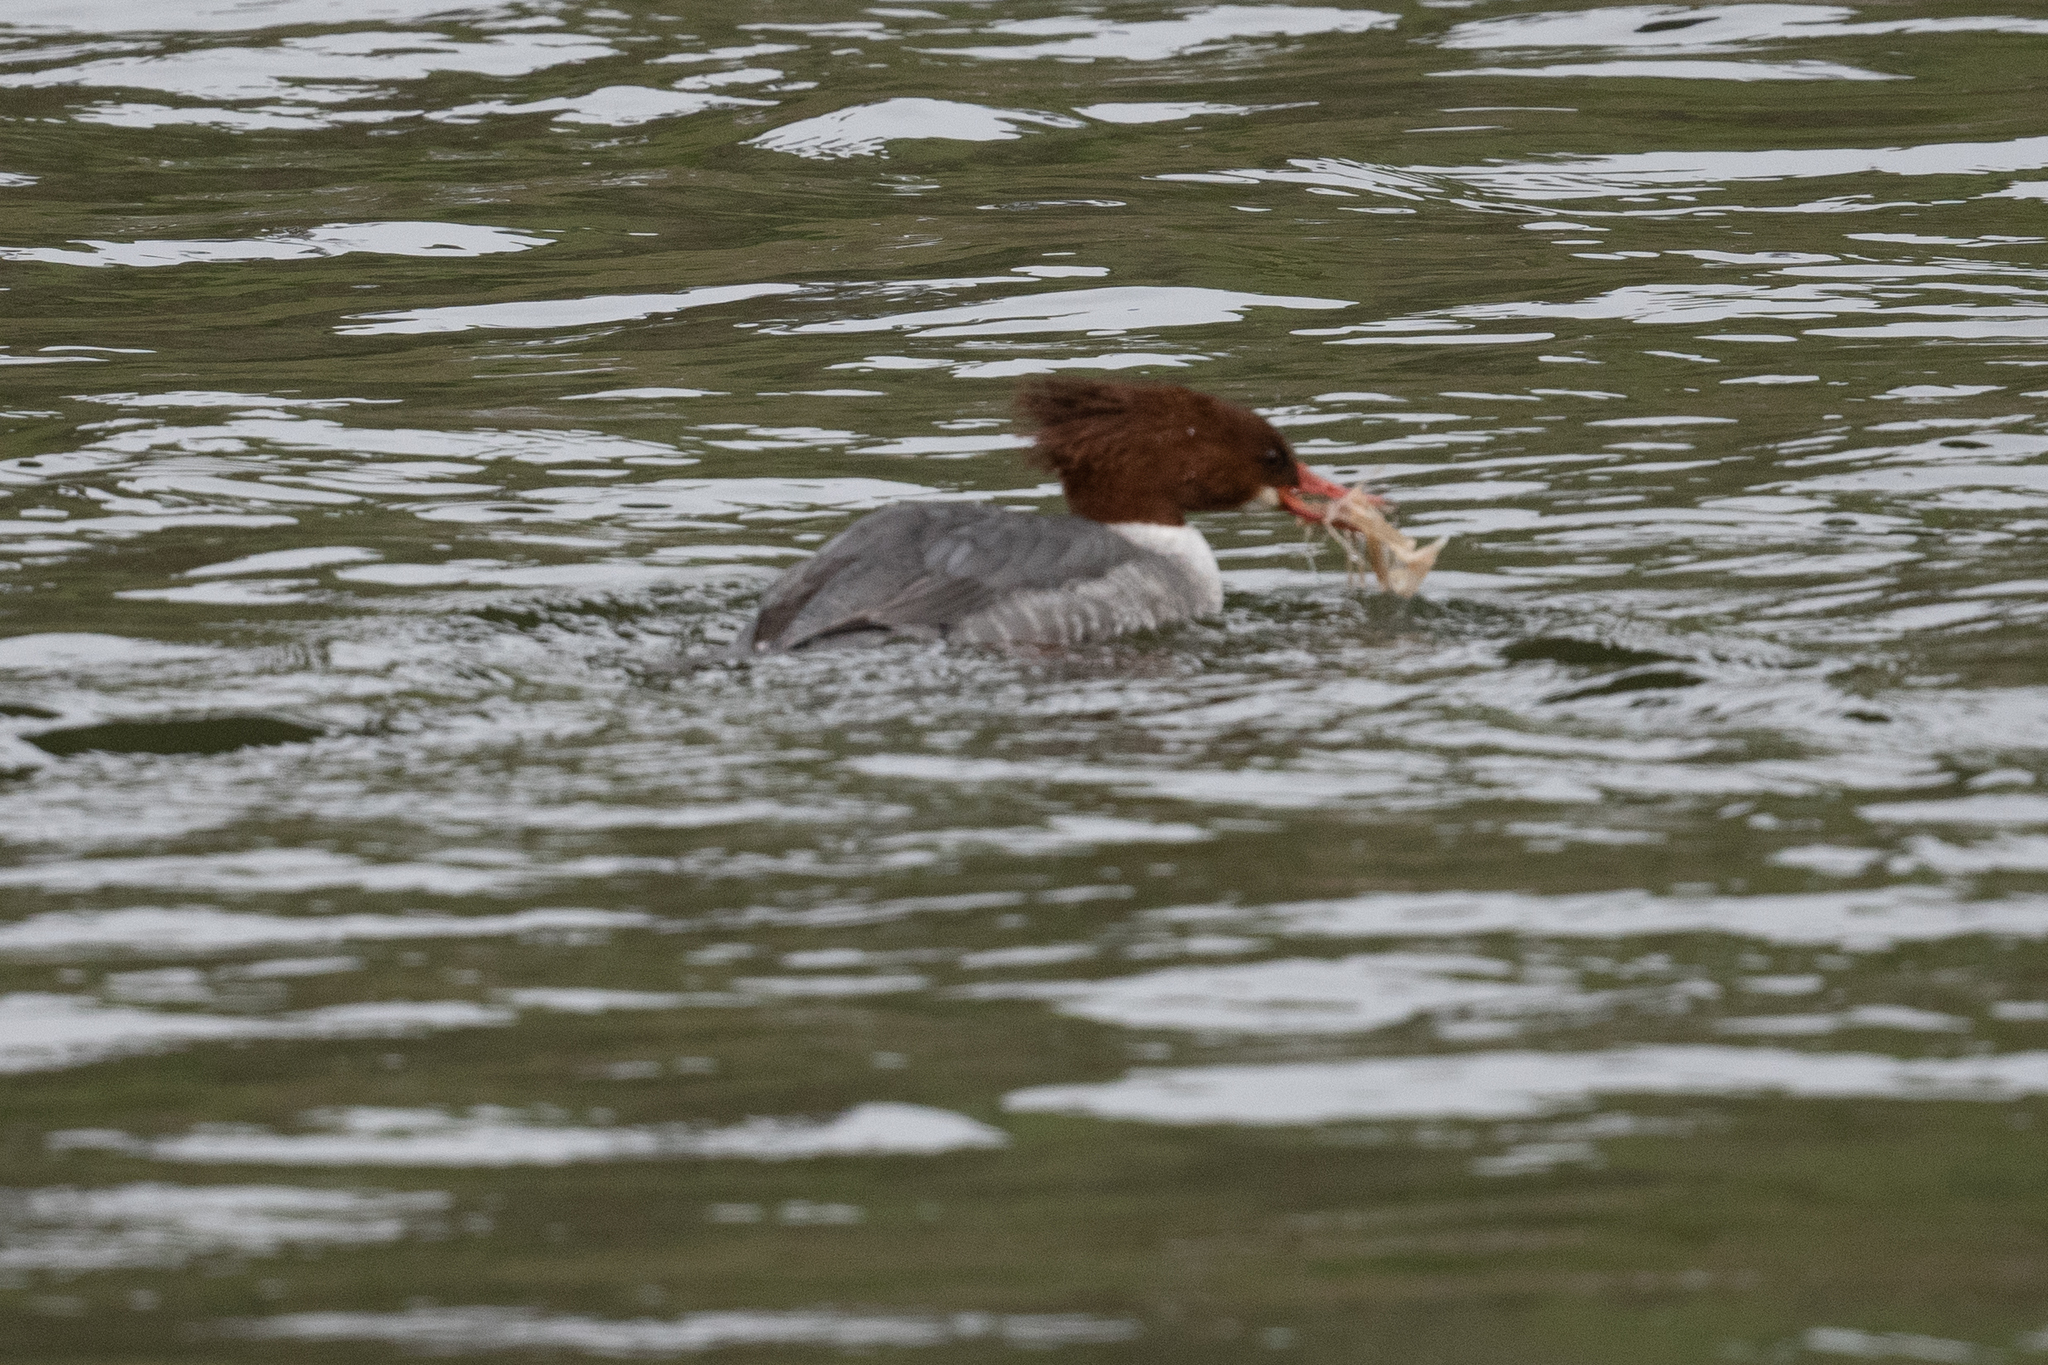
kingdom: Animalia
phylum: Chordata
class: Aves
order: Anseriformes
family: Anatidae
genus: Mergus
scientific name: Mergus merganser
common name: Common merganser
